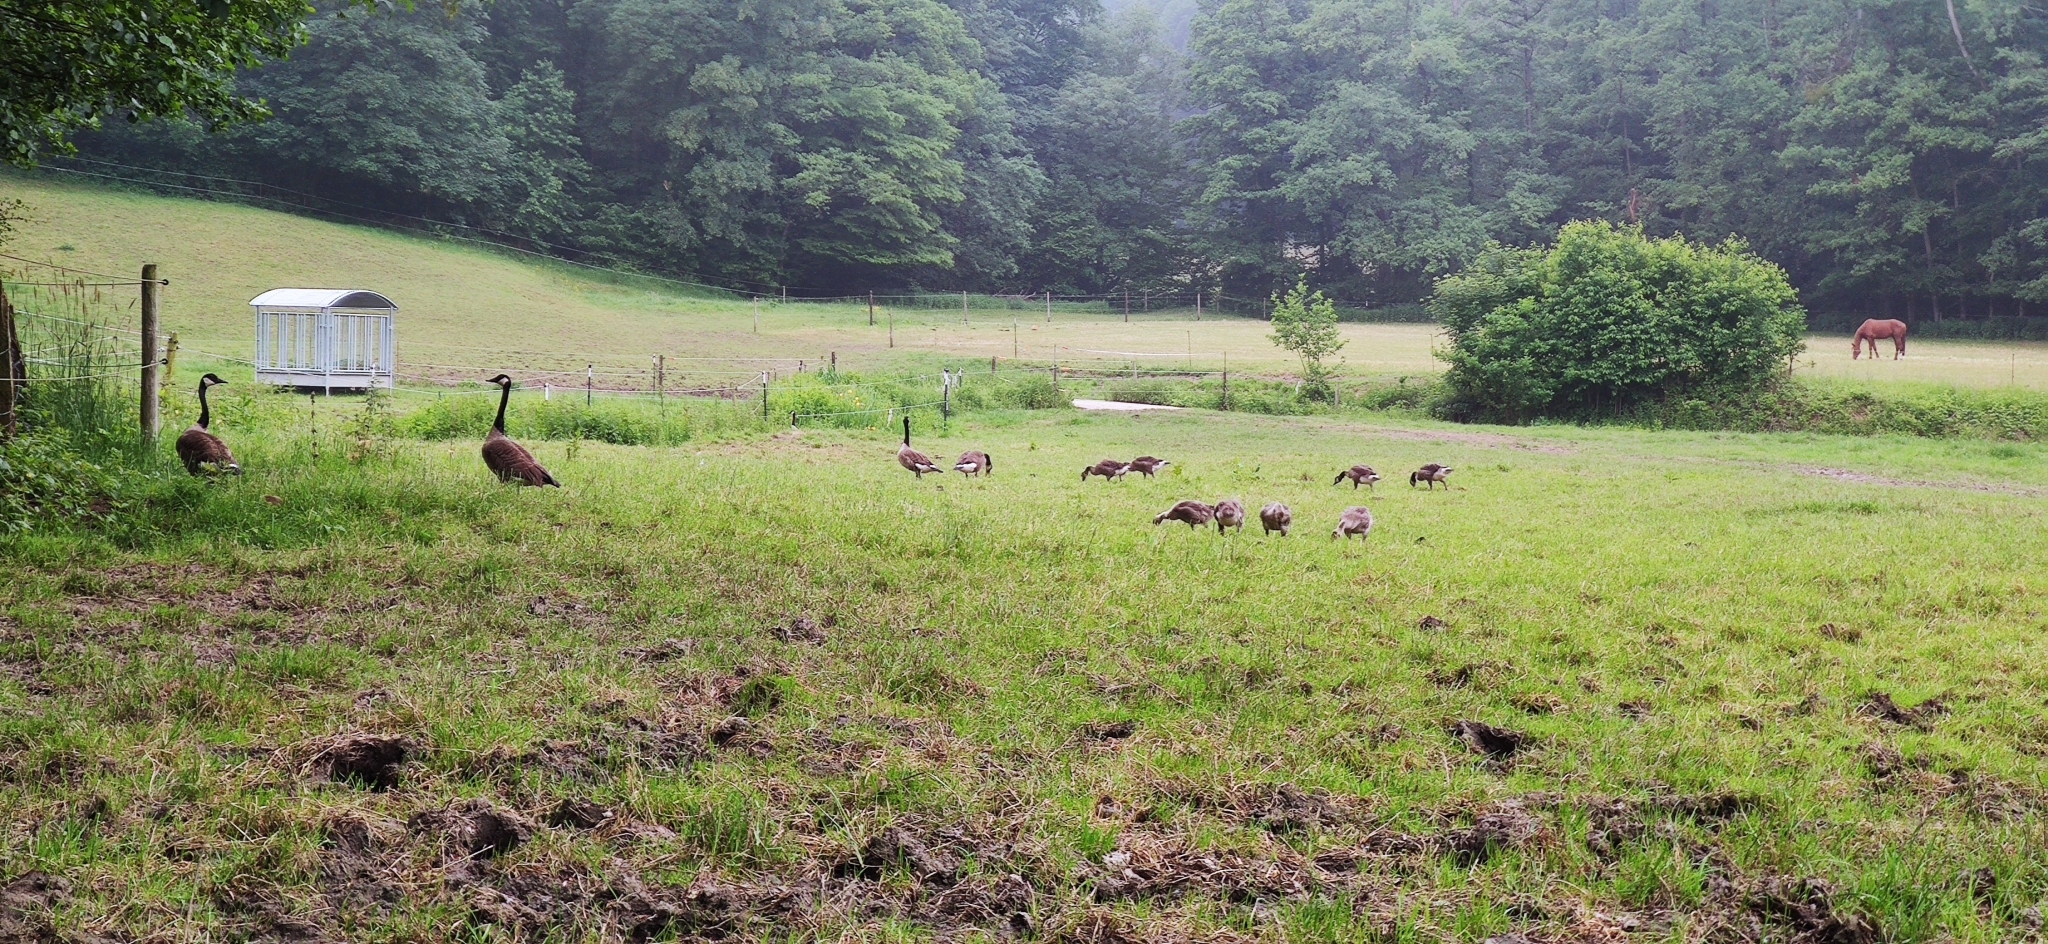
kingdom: Animalia
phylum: Chordata
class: Aves
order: Anseriformes
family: Anatidae
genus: Branta
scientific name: Branta canadensis
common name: Canada goose
